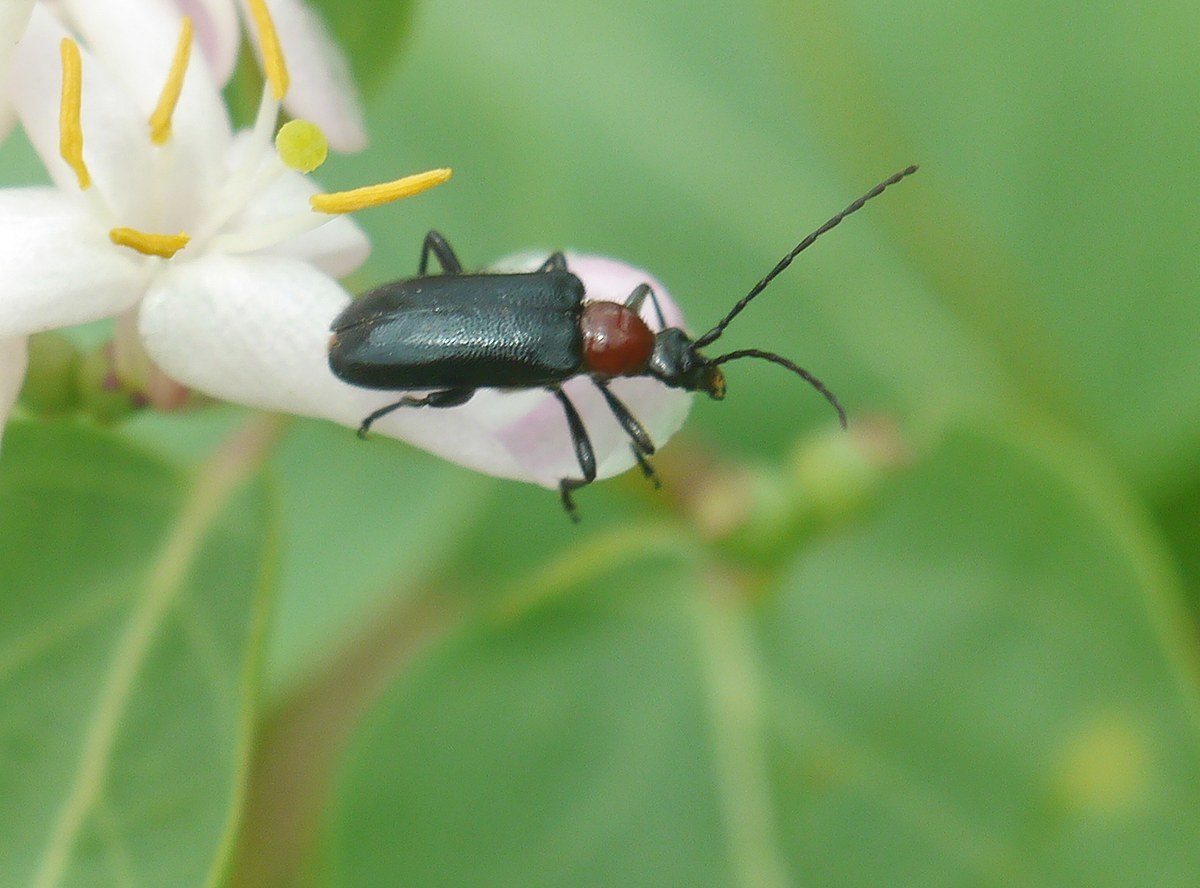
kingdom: Animalia
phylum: Arthropoda
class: Insecta
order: Coleoptera
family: Cerambycidae
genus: Dinoptera
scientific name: Dinoptera collaris
